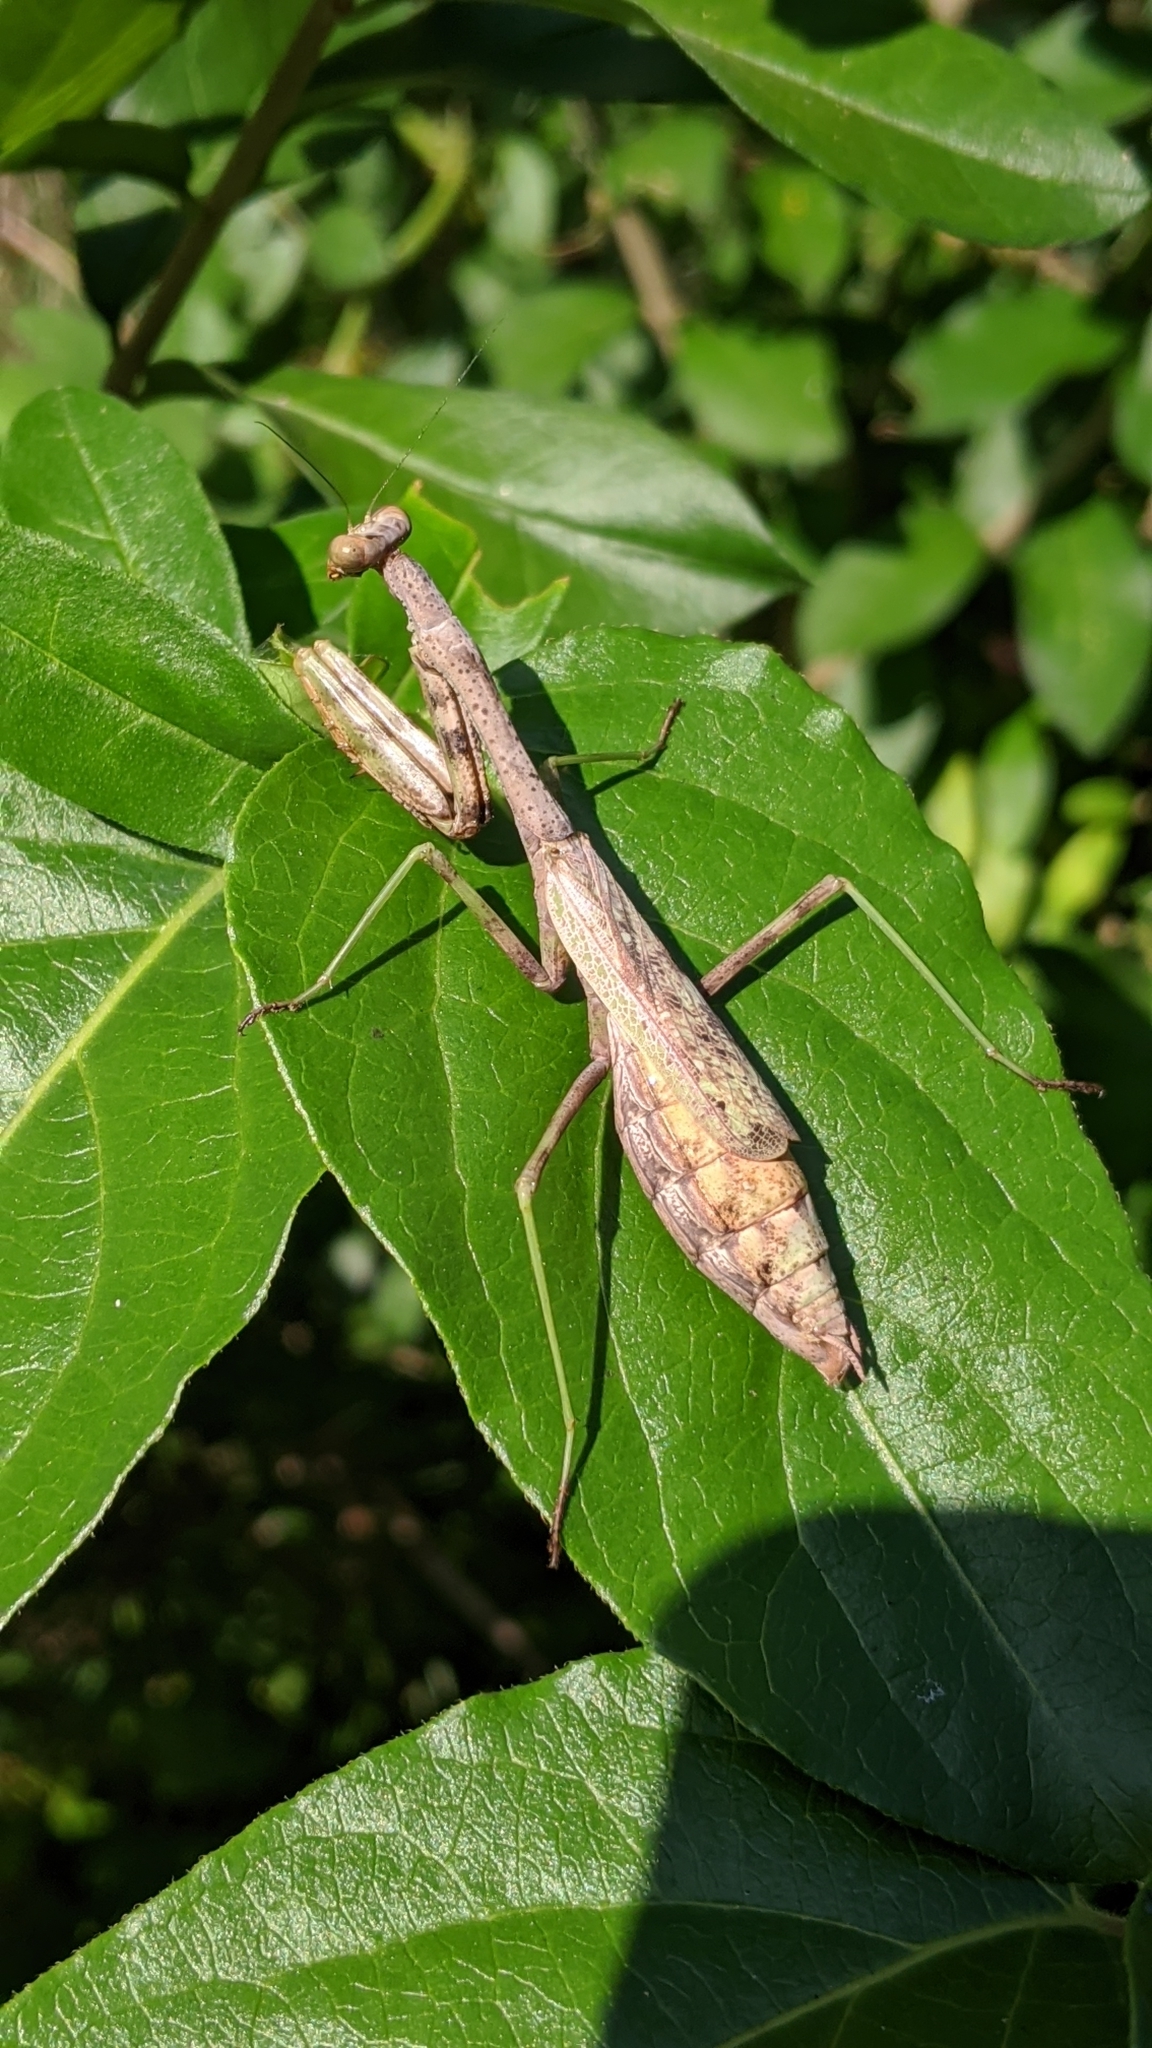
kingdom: Animalia
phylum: Arthropoda
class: Insecta
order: Mantodea
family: Mantidae
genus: Stagmomantis
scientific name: Stagmomantis carolina
